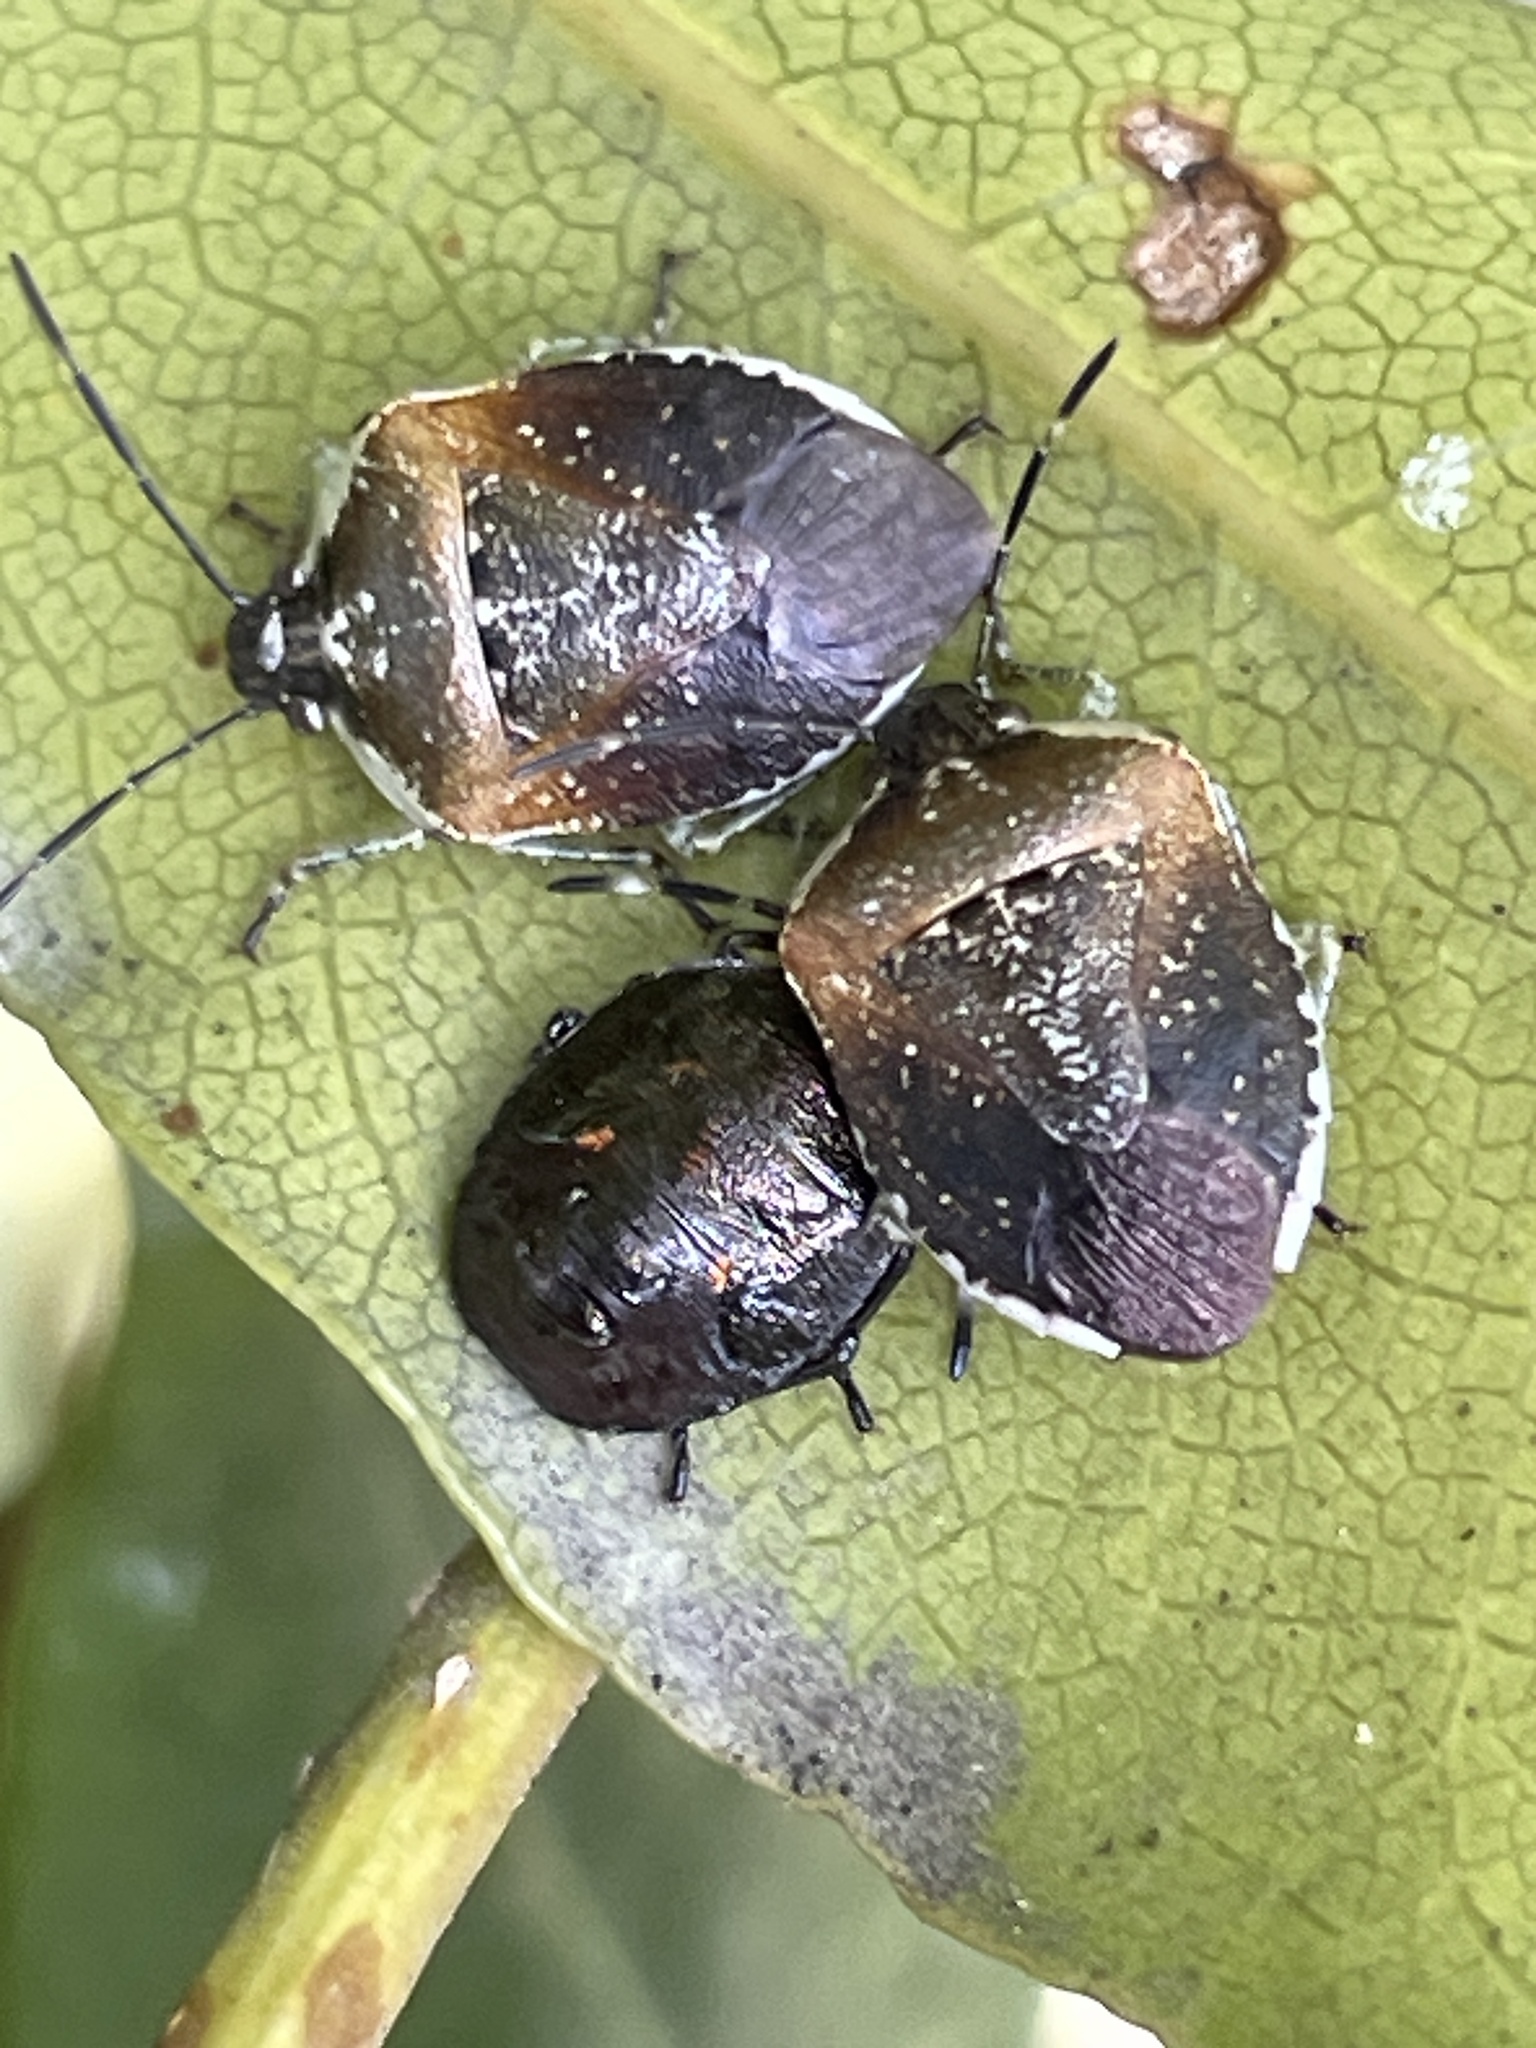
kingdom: Animalia
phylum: Arthropoda
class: Insecta
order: Hemiptera
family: Pentatomidae
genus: Monteithiella
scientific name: Monteithiella
